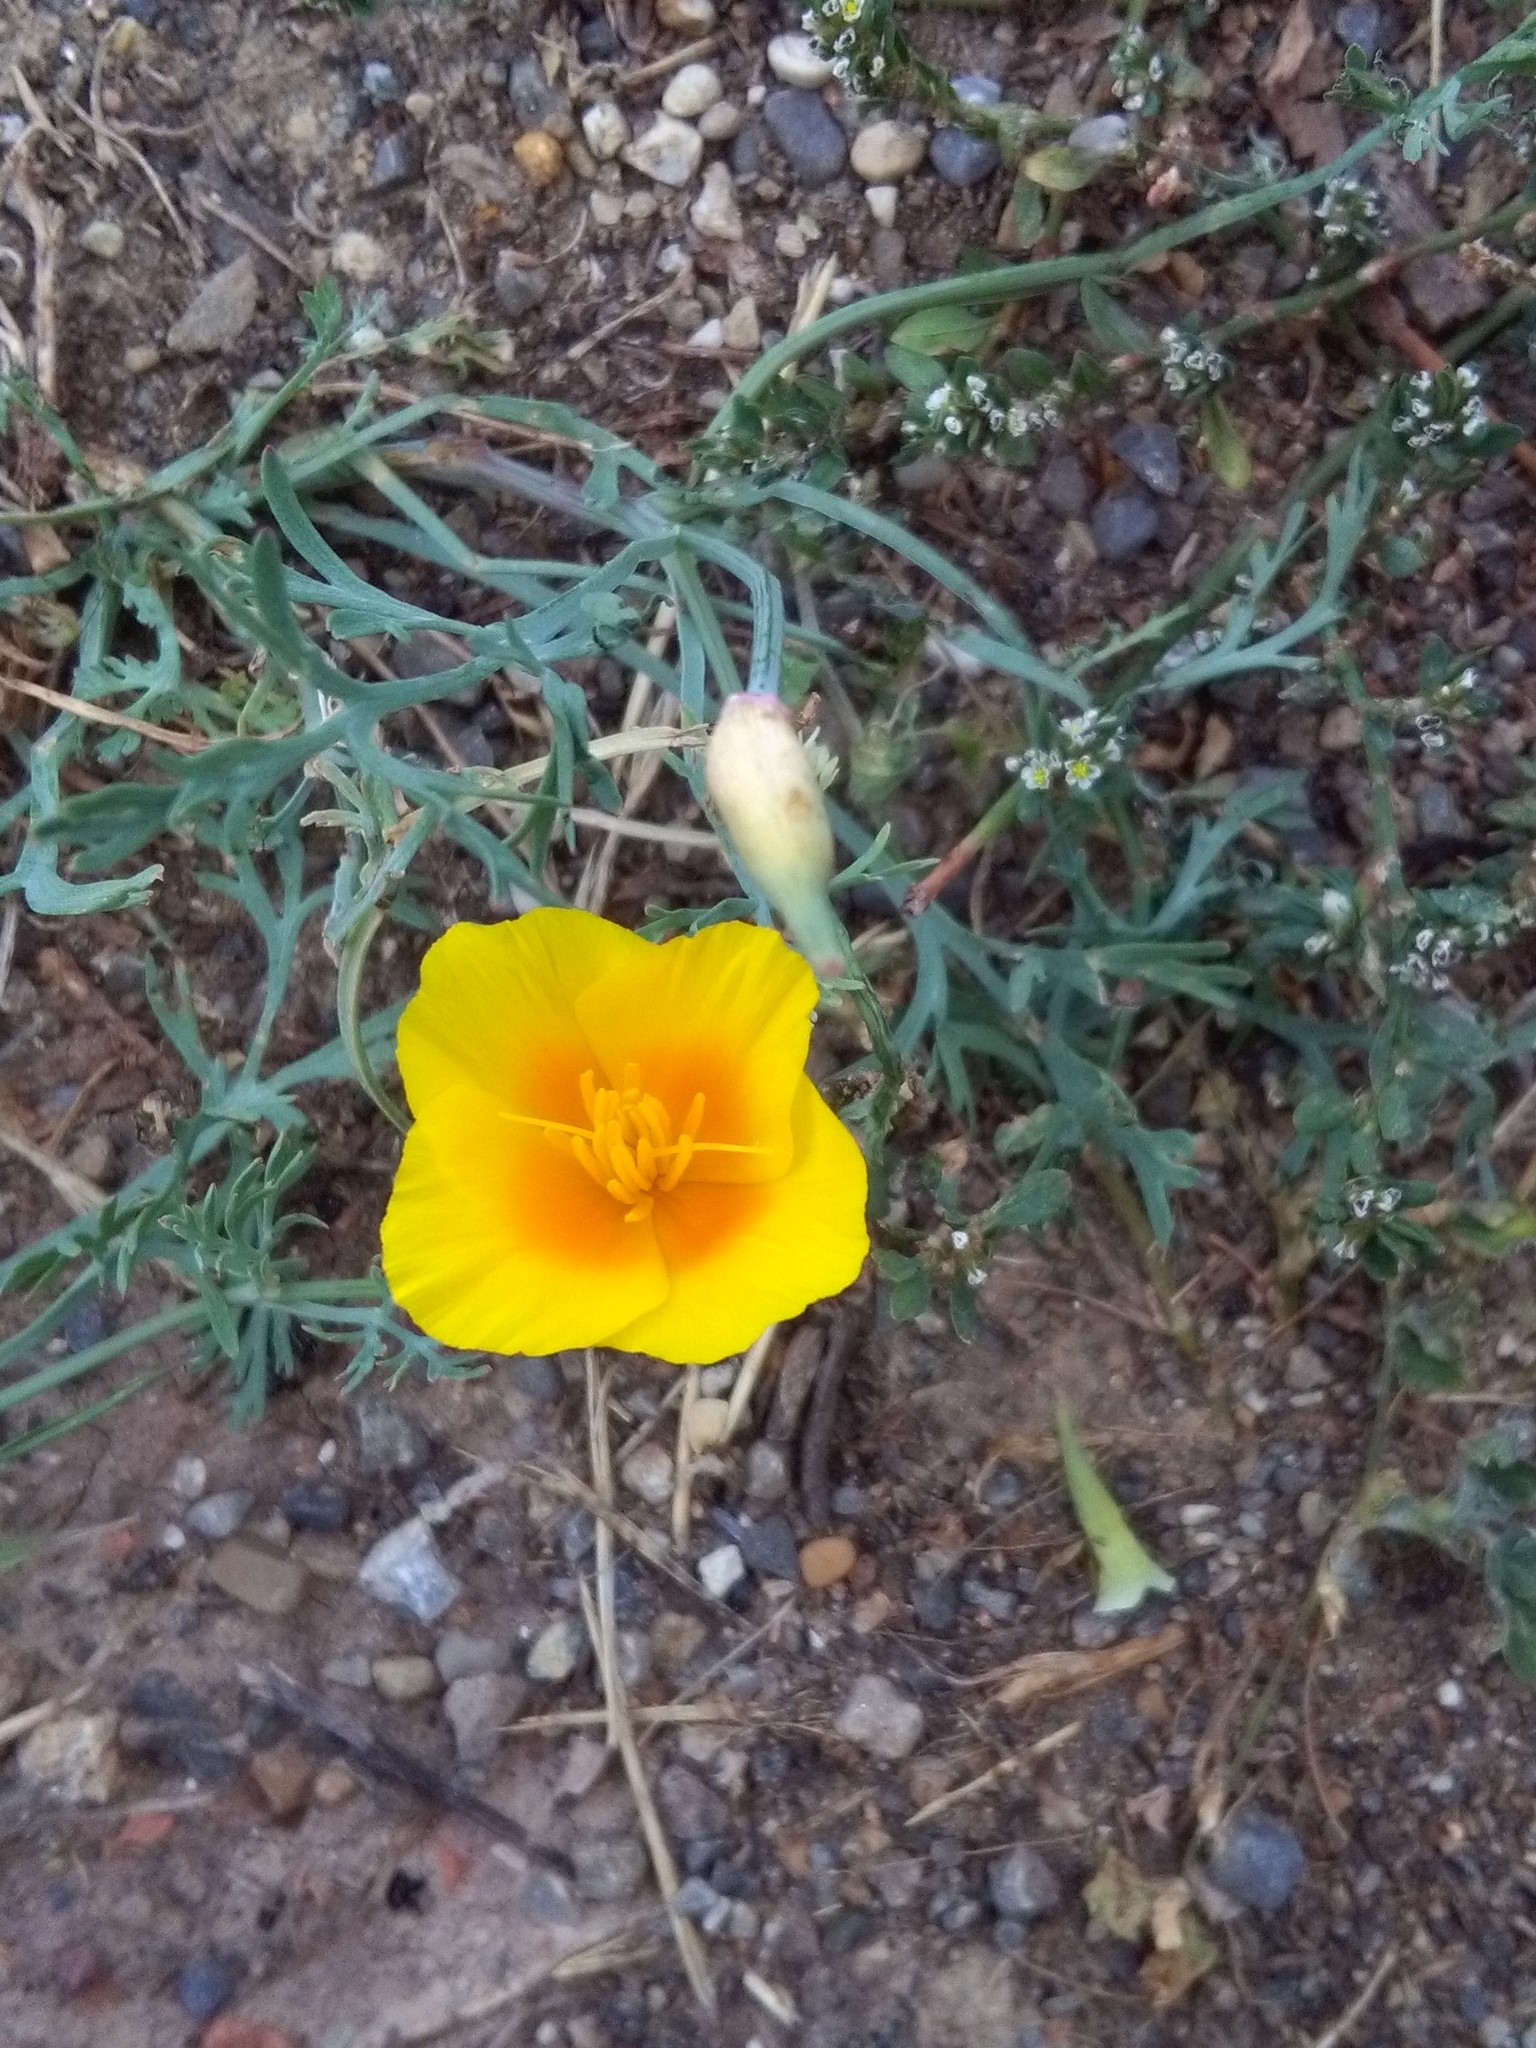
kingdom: Plantae
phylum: Tracheophyta
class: Magnoliopsida
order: Ranunculales
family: Papaveraceae
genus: Eschscholzia
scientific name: Eschscholzia californica
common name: California poppy
